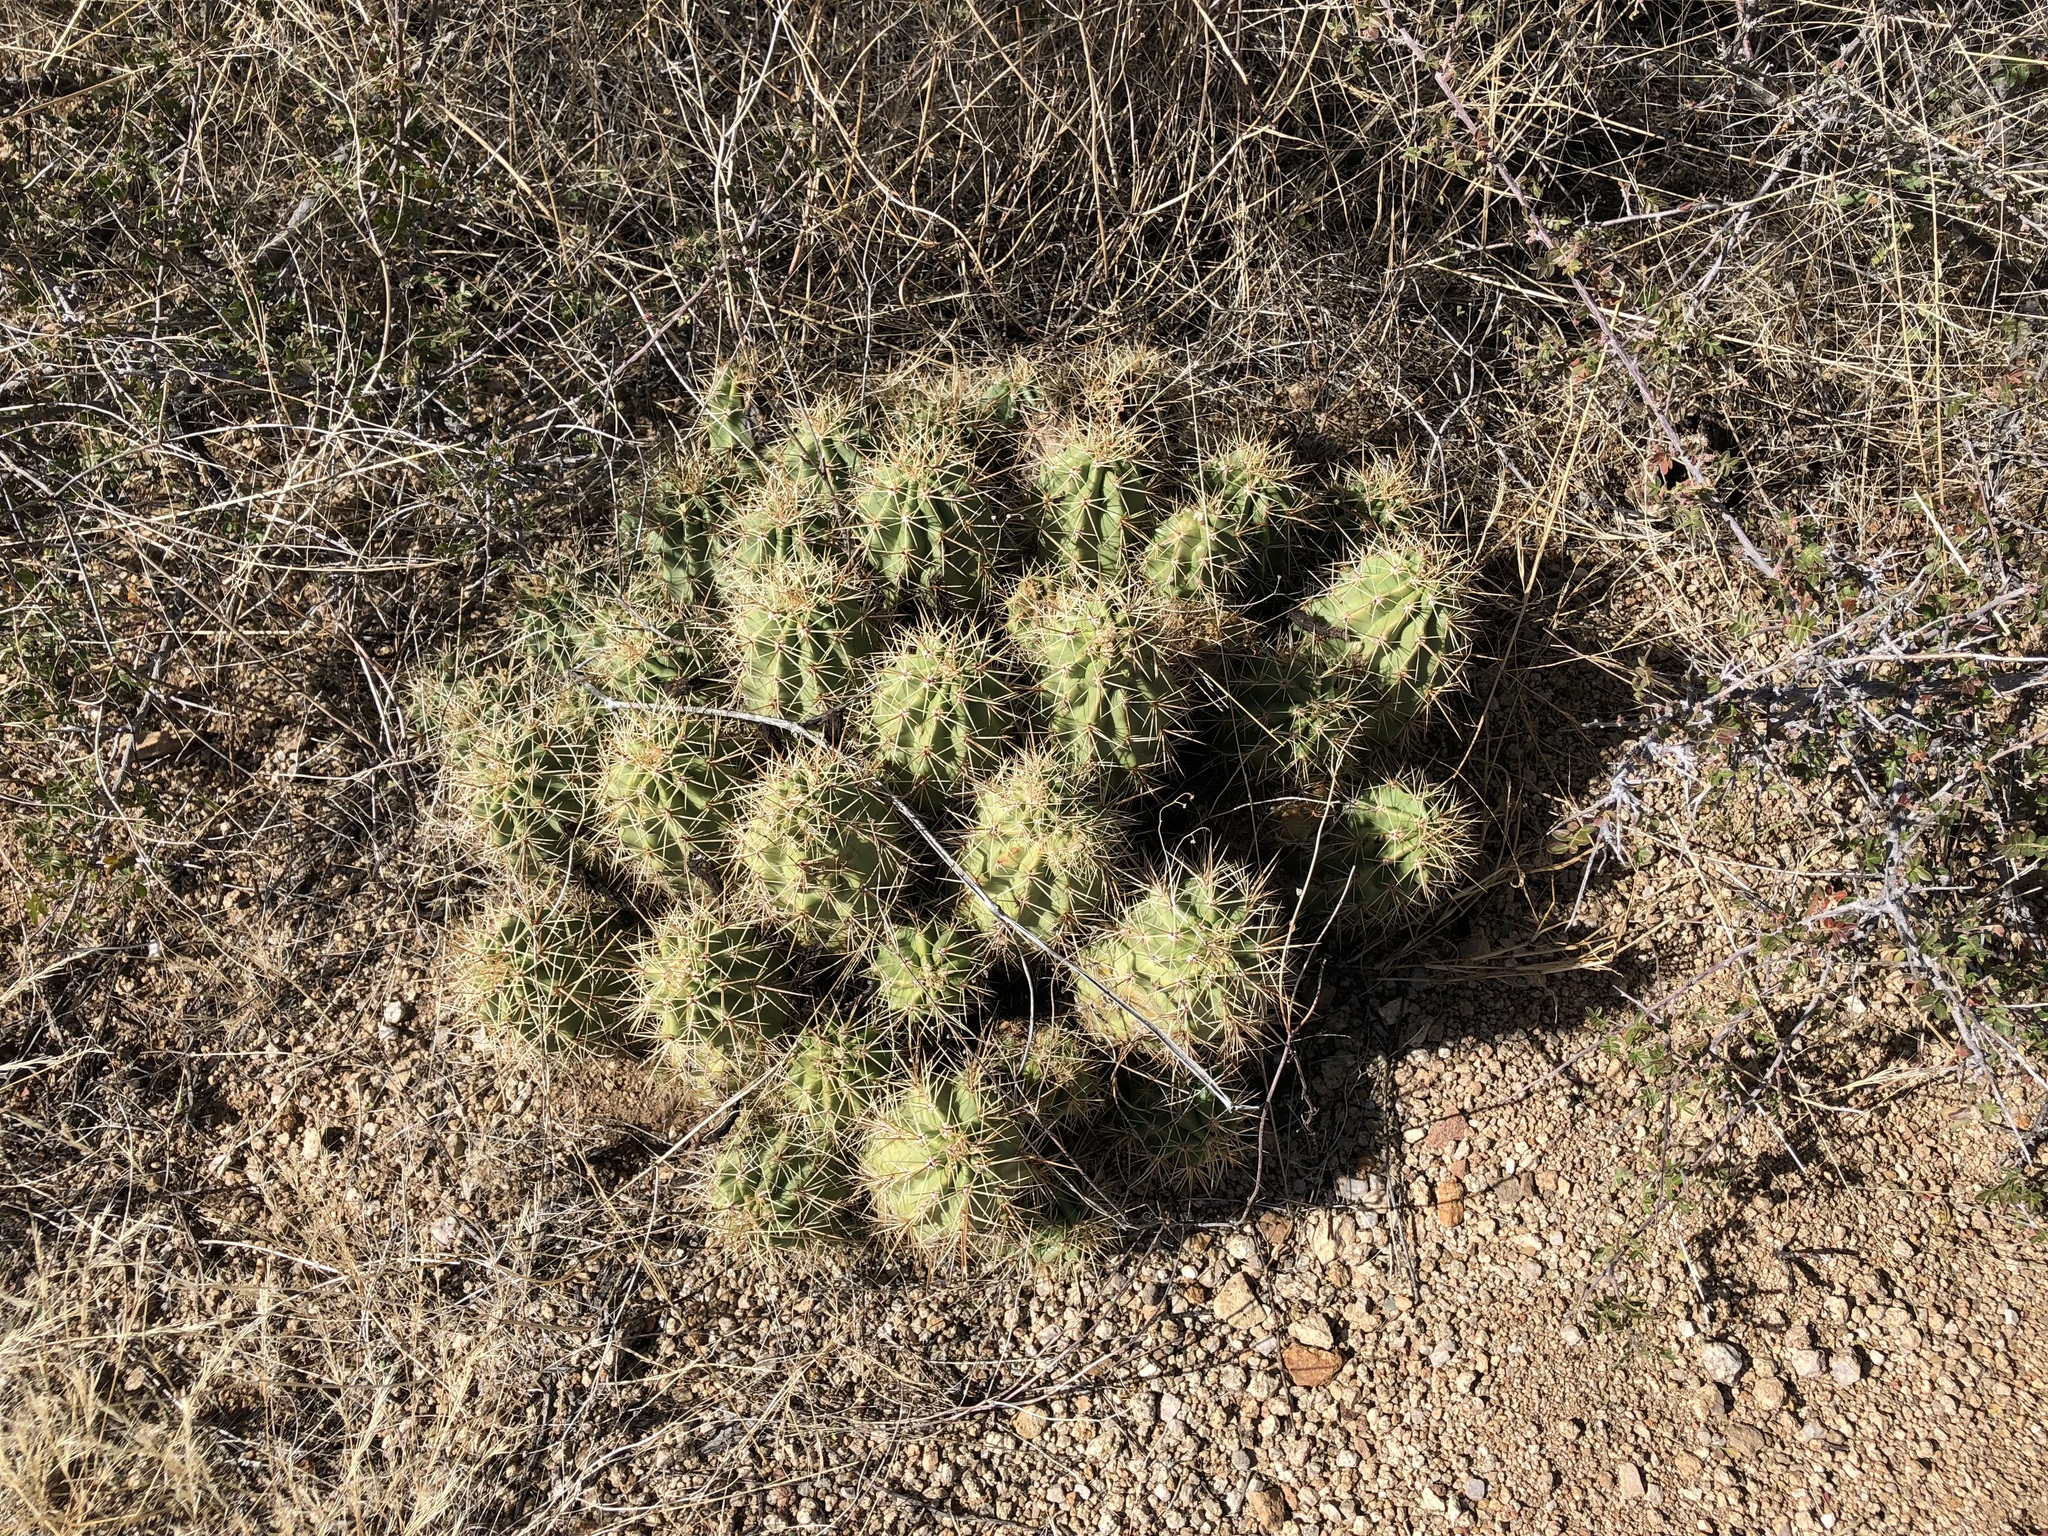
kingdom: Plantae
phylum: Tracheophyta
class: Magnoliopsida
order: Caryophyllales
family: Cactaceae
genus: Echinocereus
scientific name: Echinocereus coccineus
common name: Scarlet hedgehog cactus
